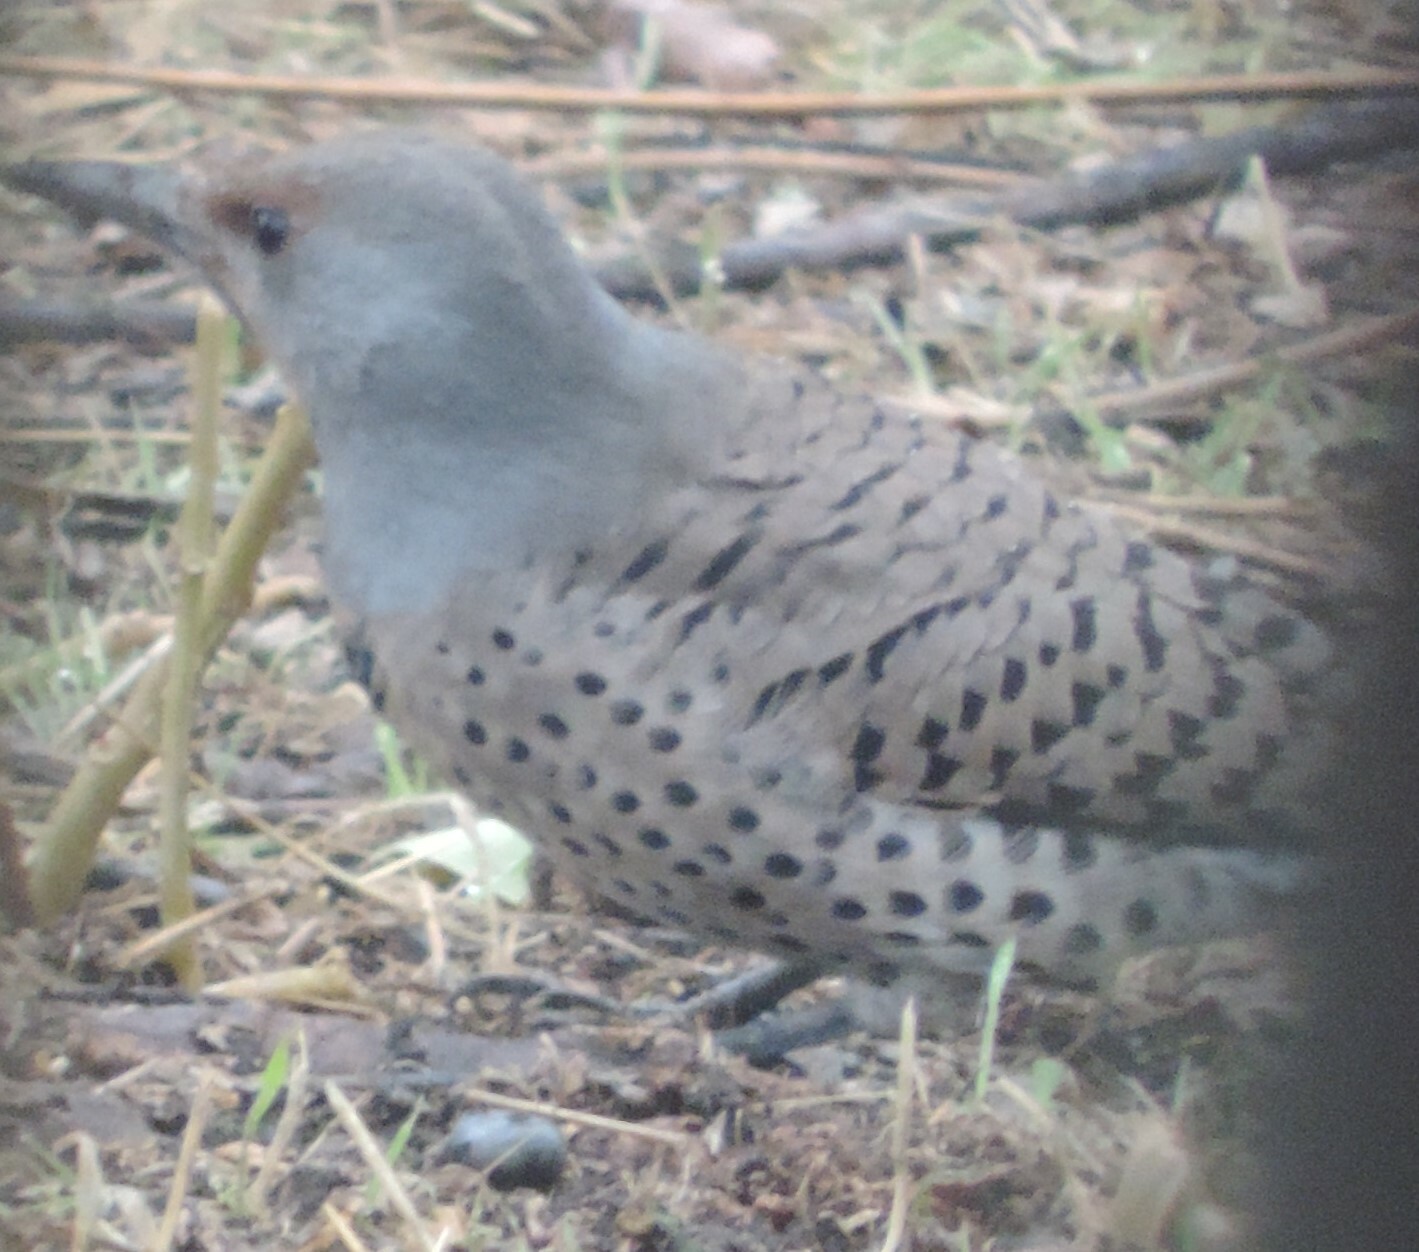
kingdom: Animalia
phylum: Chordata
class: Aves
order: Piciformes
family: Picidae
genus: Colaptes
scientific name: Colaptes auratus
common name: Northern flicker
